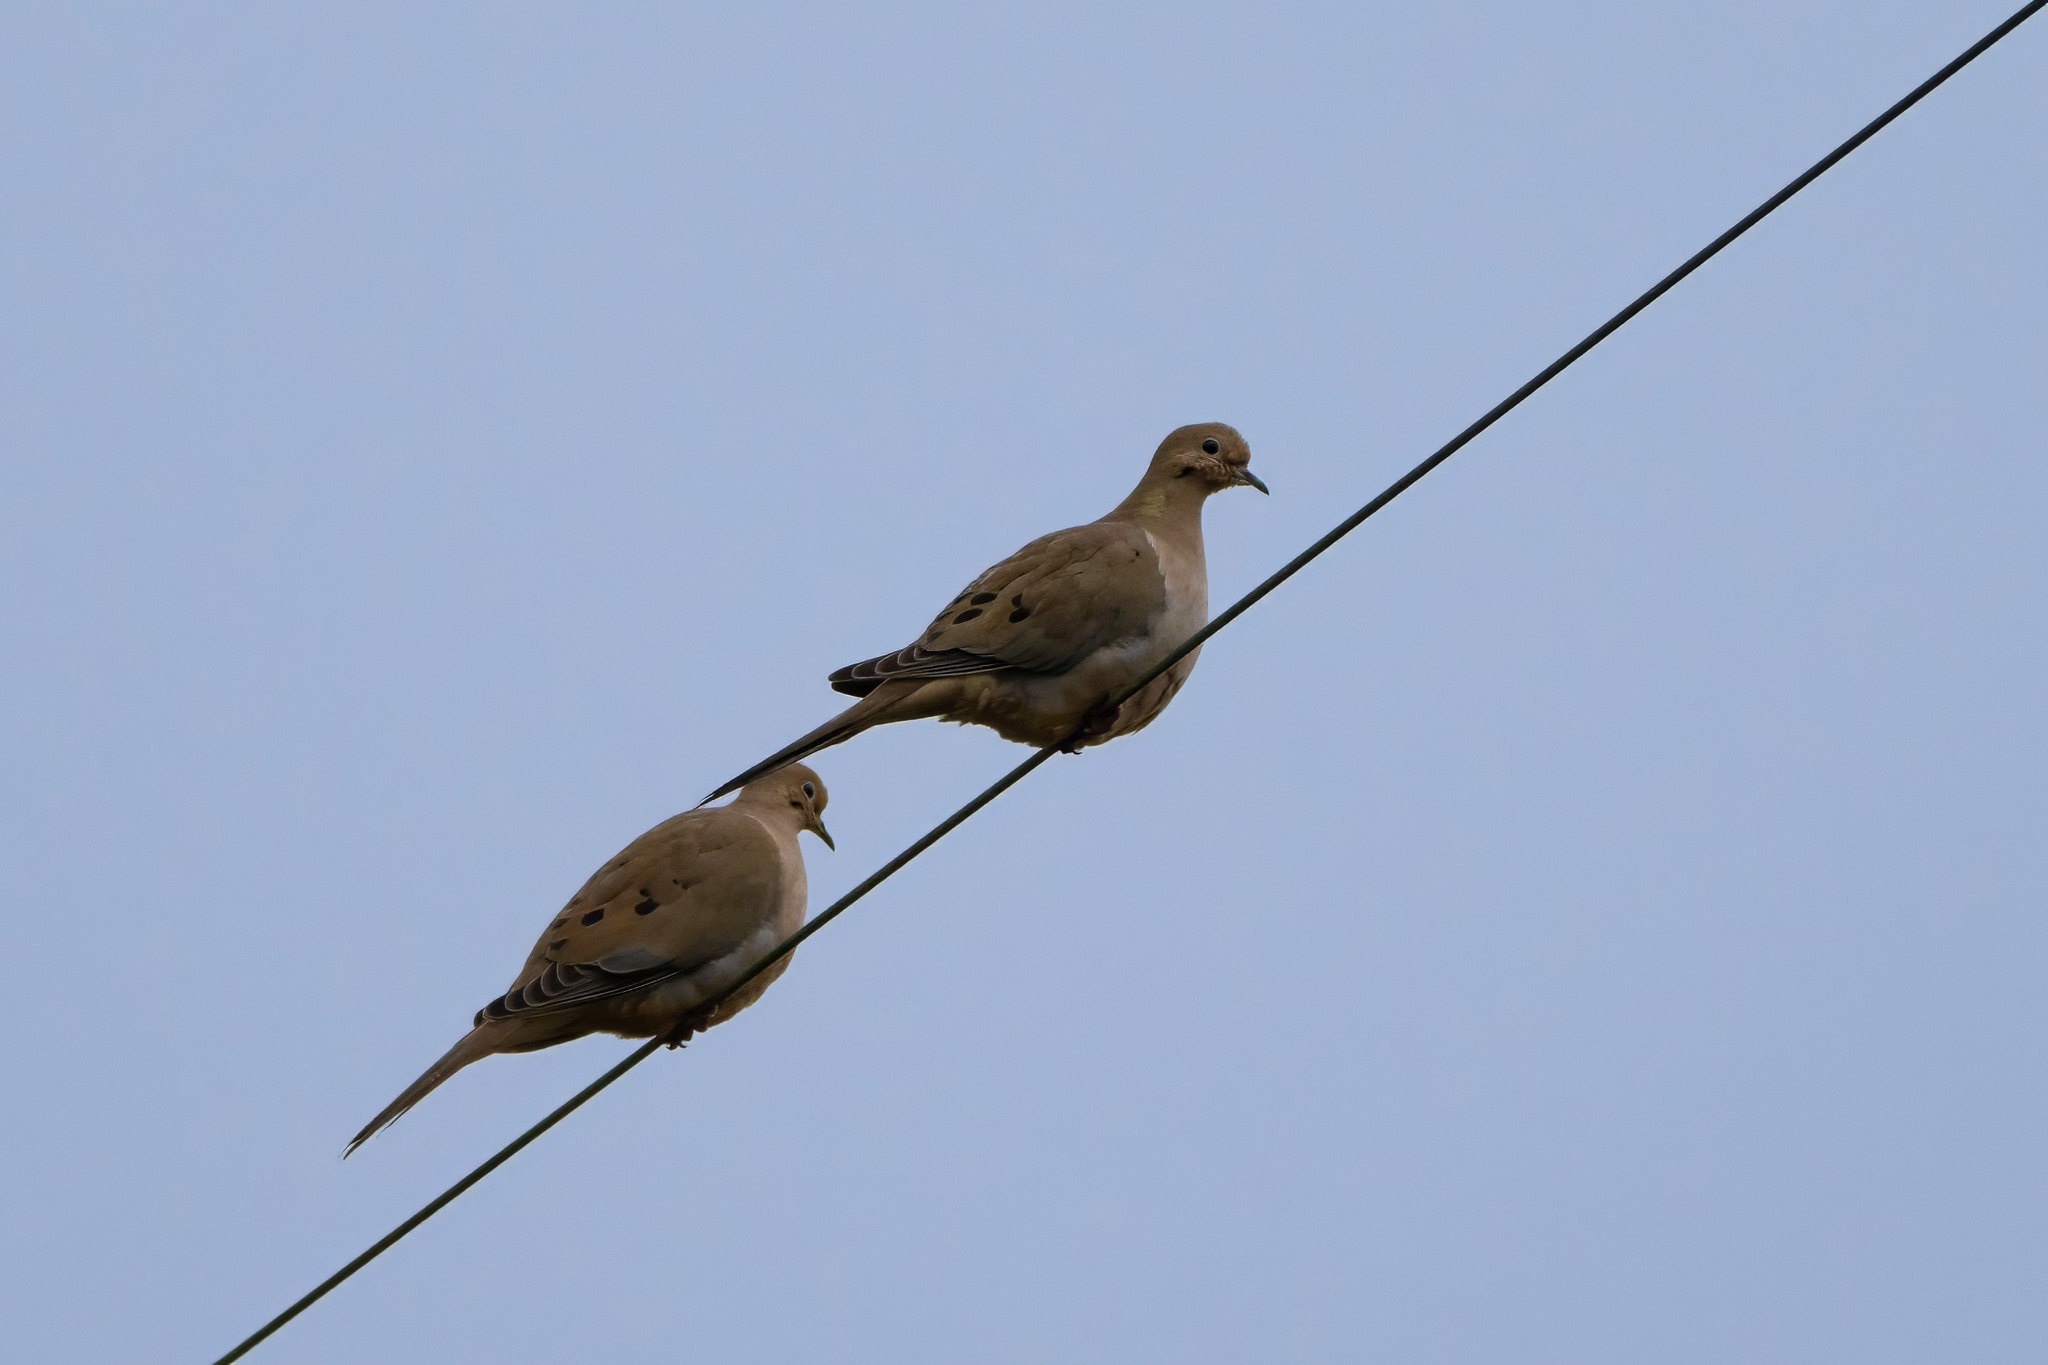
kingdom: Animalia
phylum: Chordata
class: Aves
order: Columbiformes
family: Columbidae
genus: Zenaida
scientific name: Zenaida macroura
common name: Mourning dove
